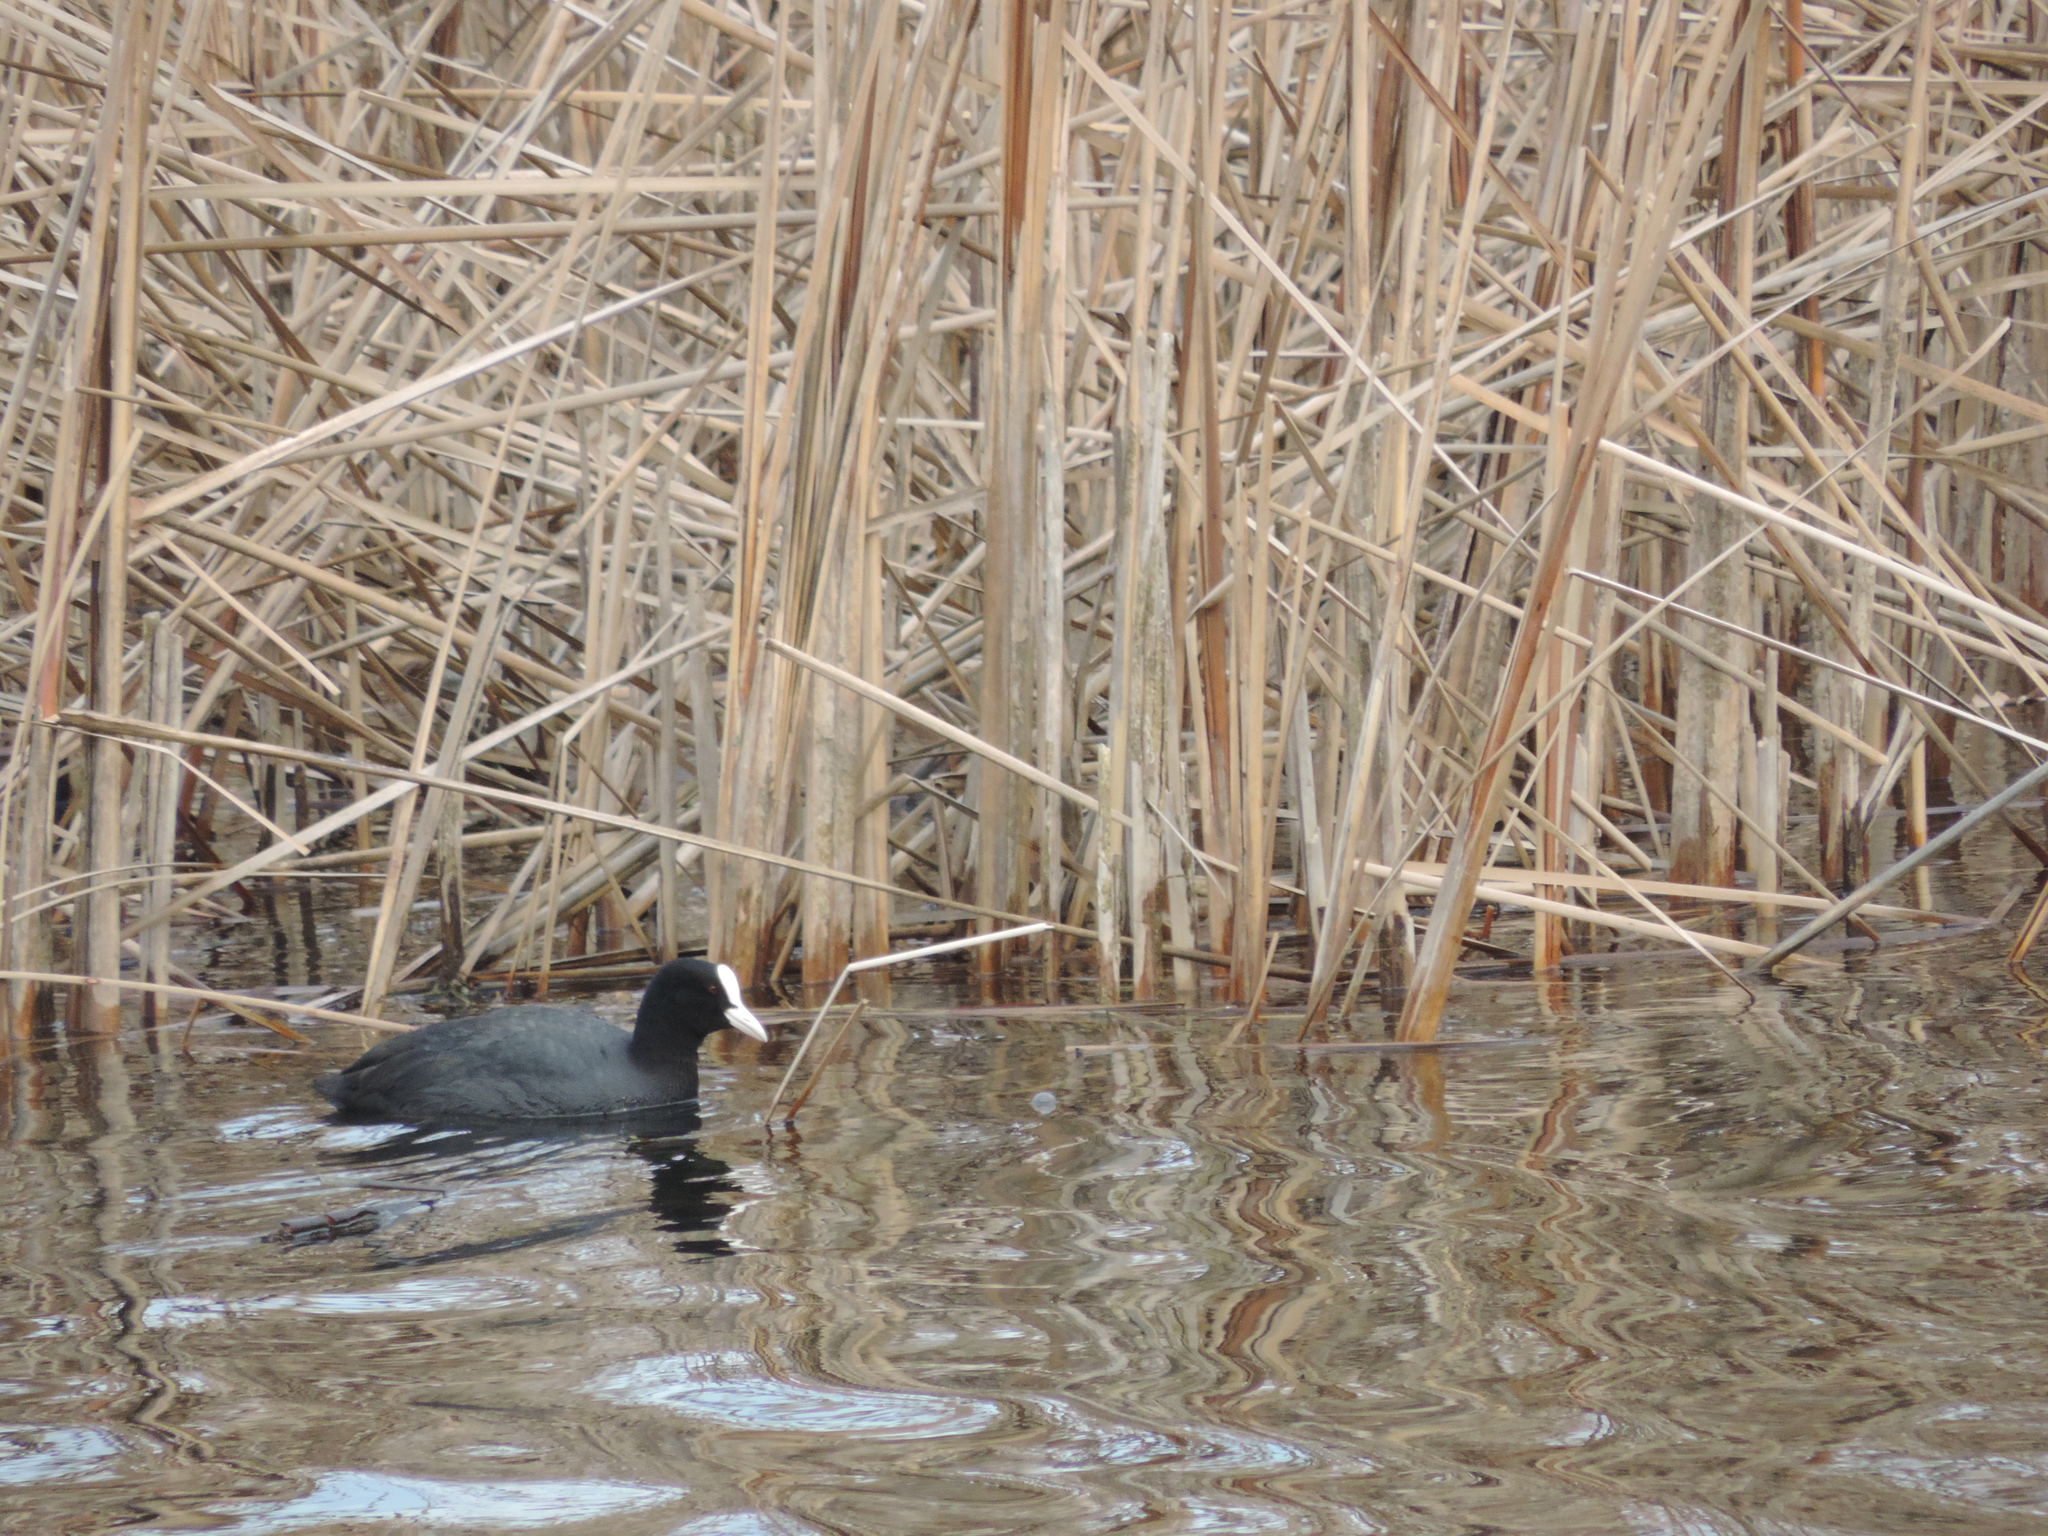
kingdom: Animalia
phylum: Chordata
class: Aves
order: Gruiformes
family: Rallidae
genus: Fulica
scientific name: Fulica atra
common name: Eurasian coot
